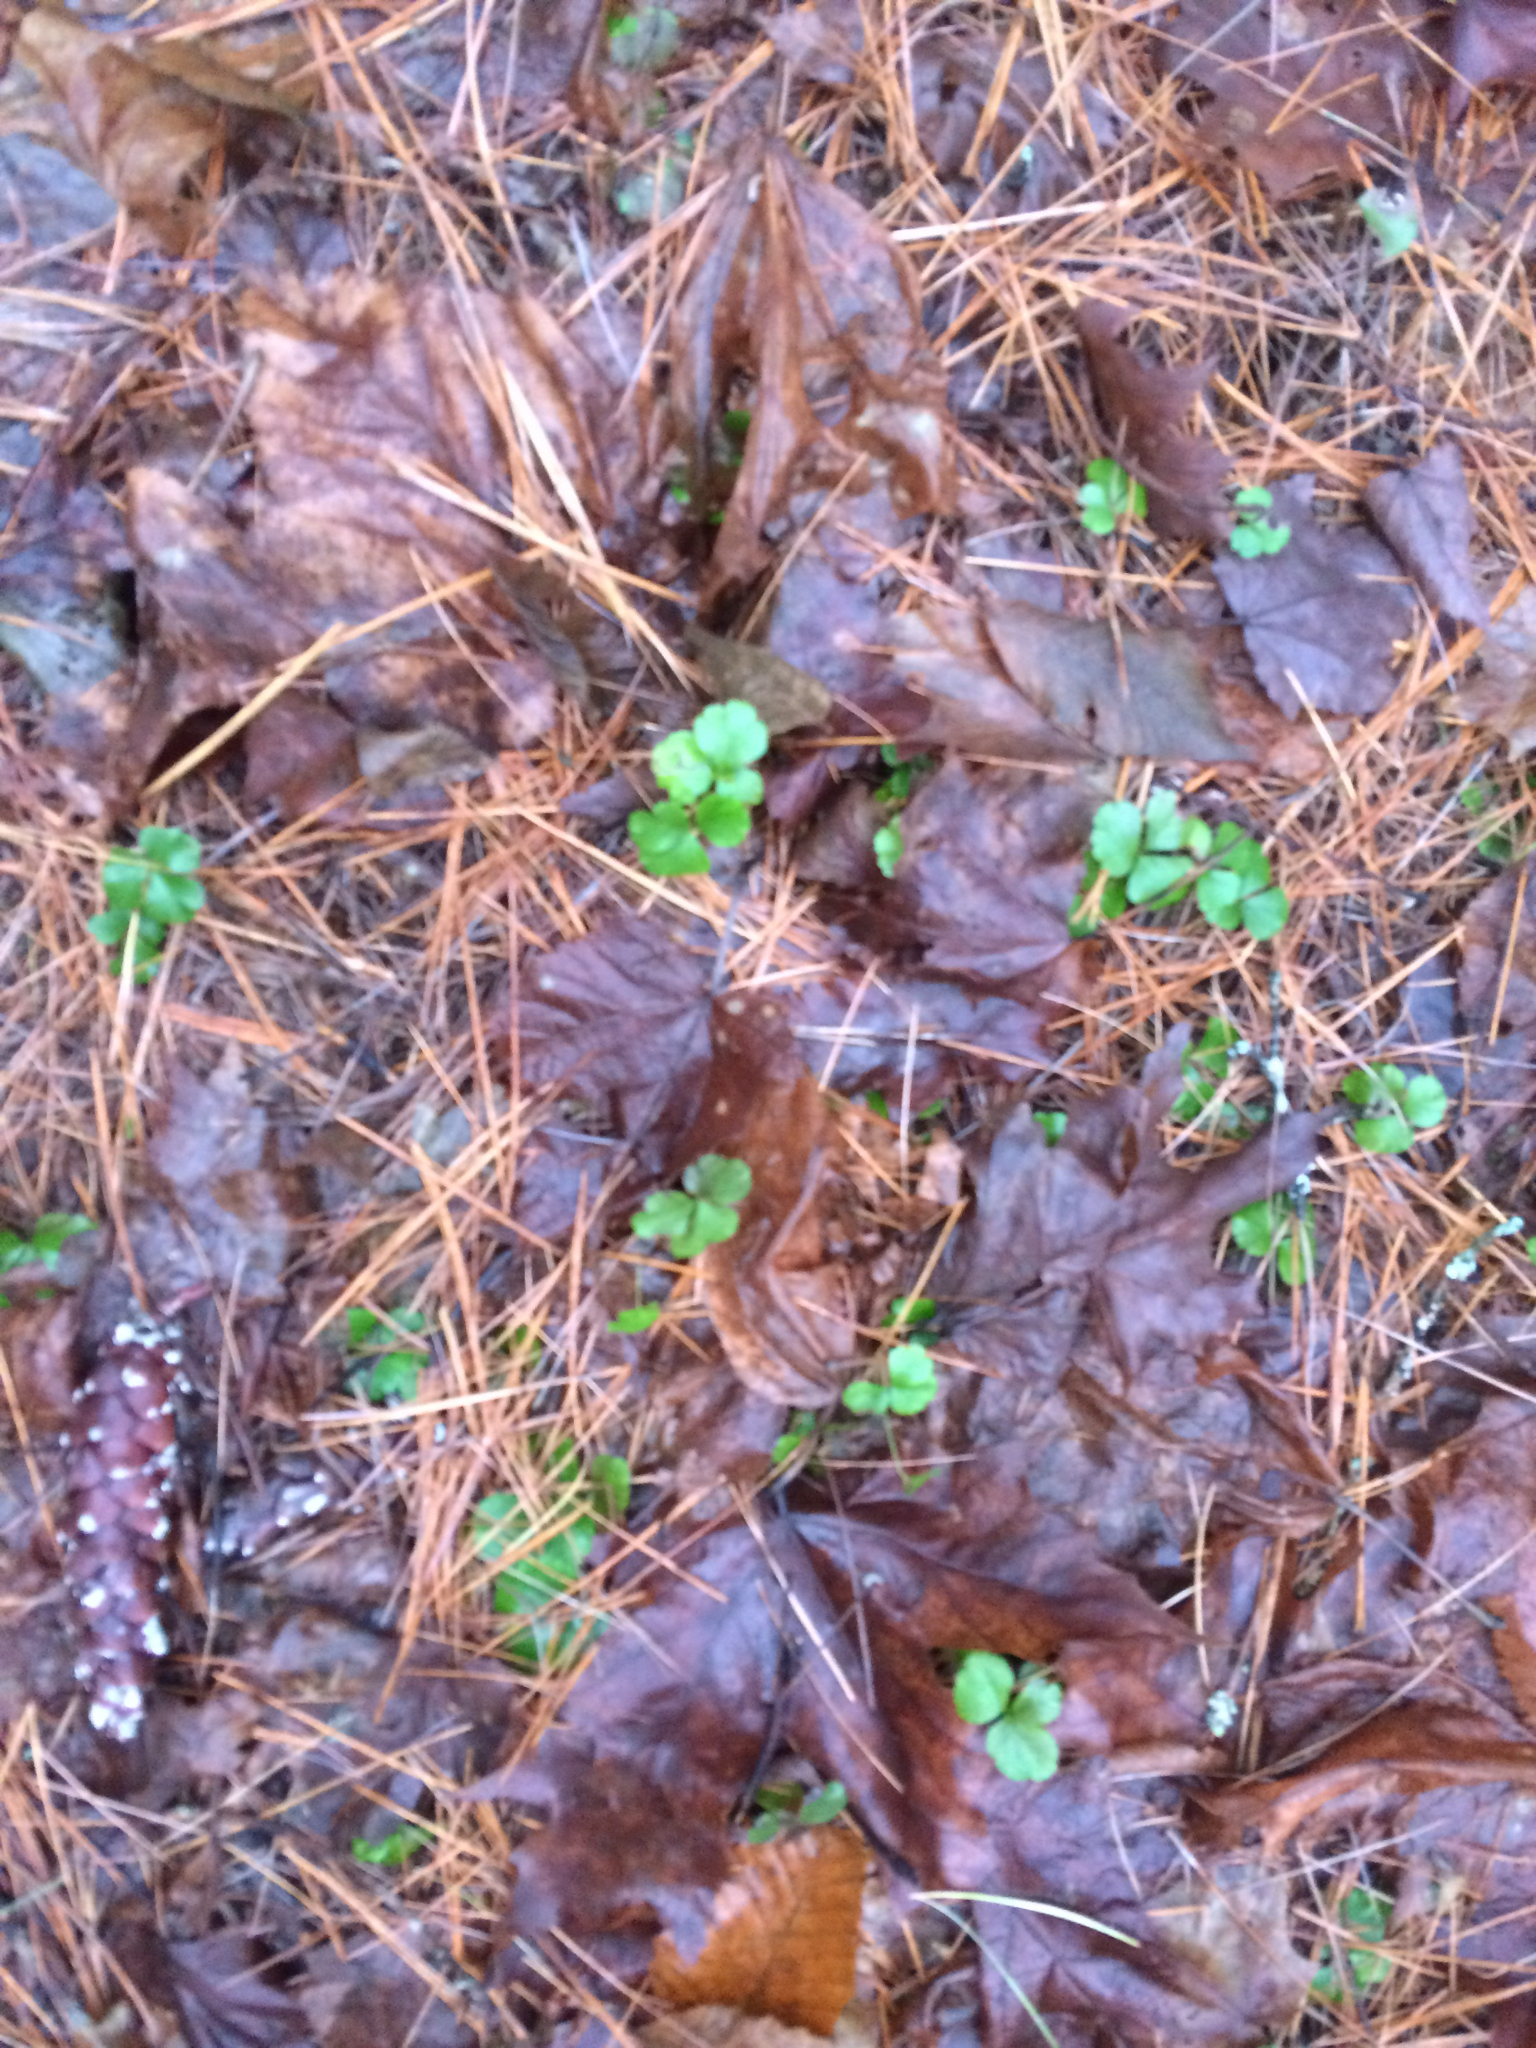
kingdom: Plantae
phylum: Tracheophyta
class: Magnoliopsida
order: Ranunculales
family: Ranunculaceae
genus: Coptis
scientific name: Coptis trifolia
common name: Canker-root
